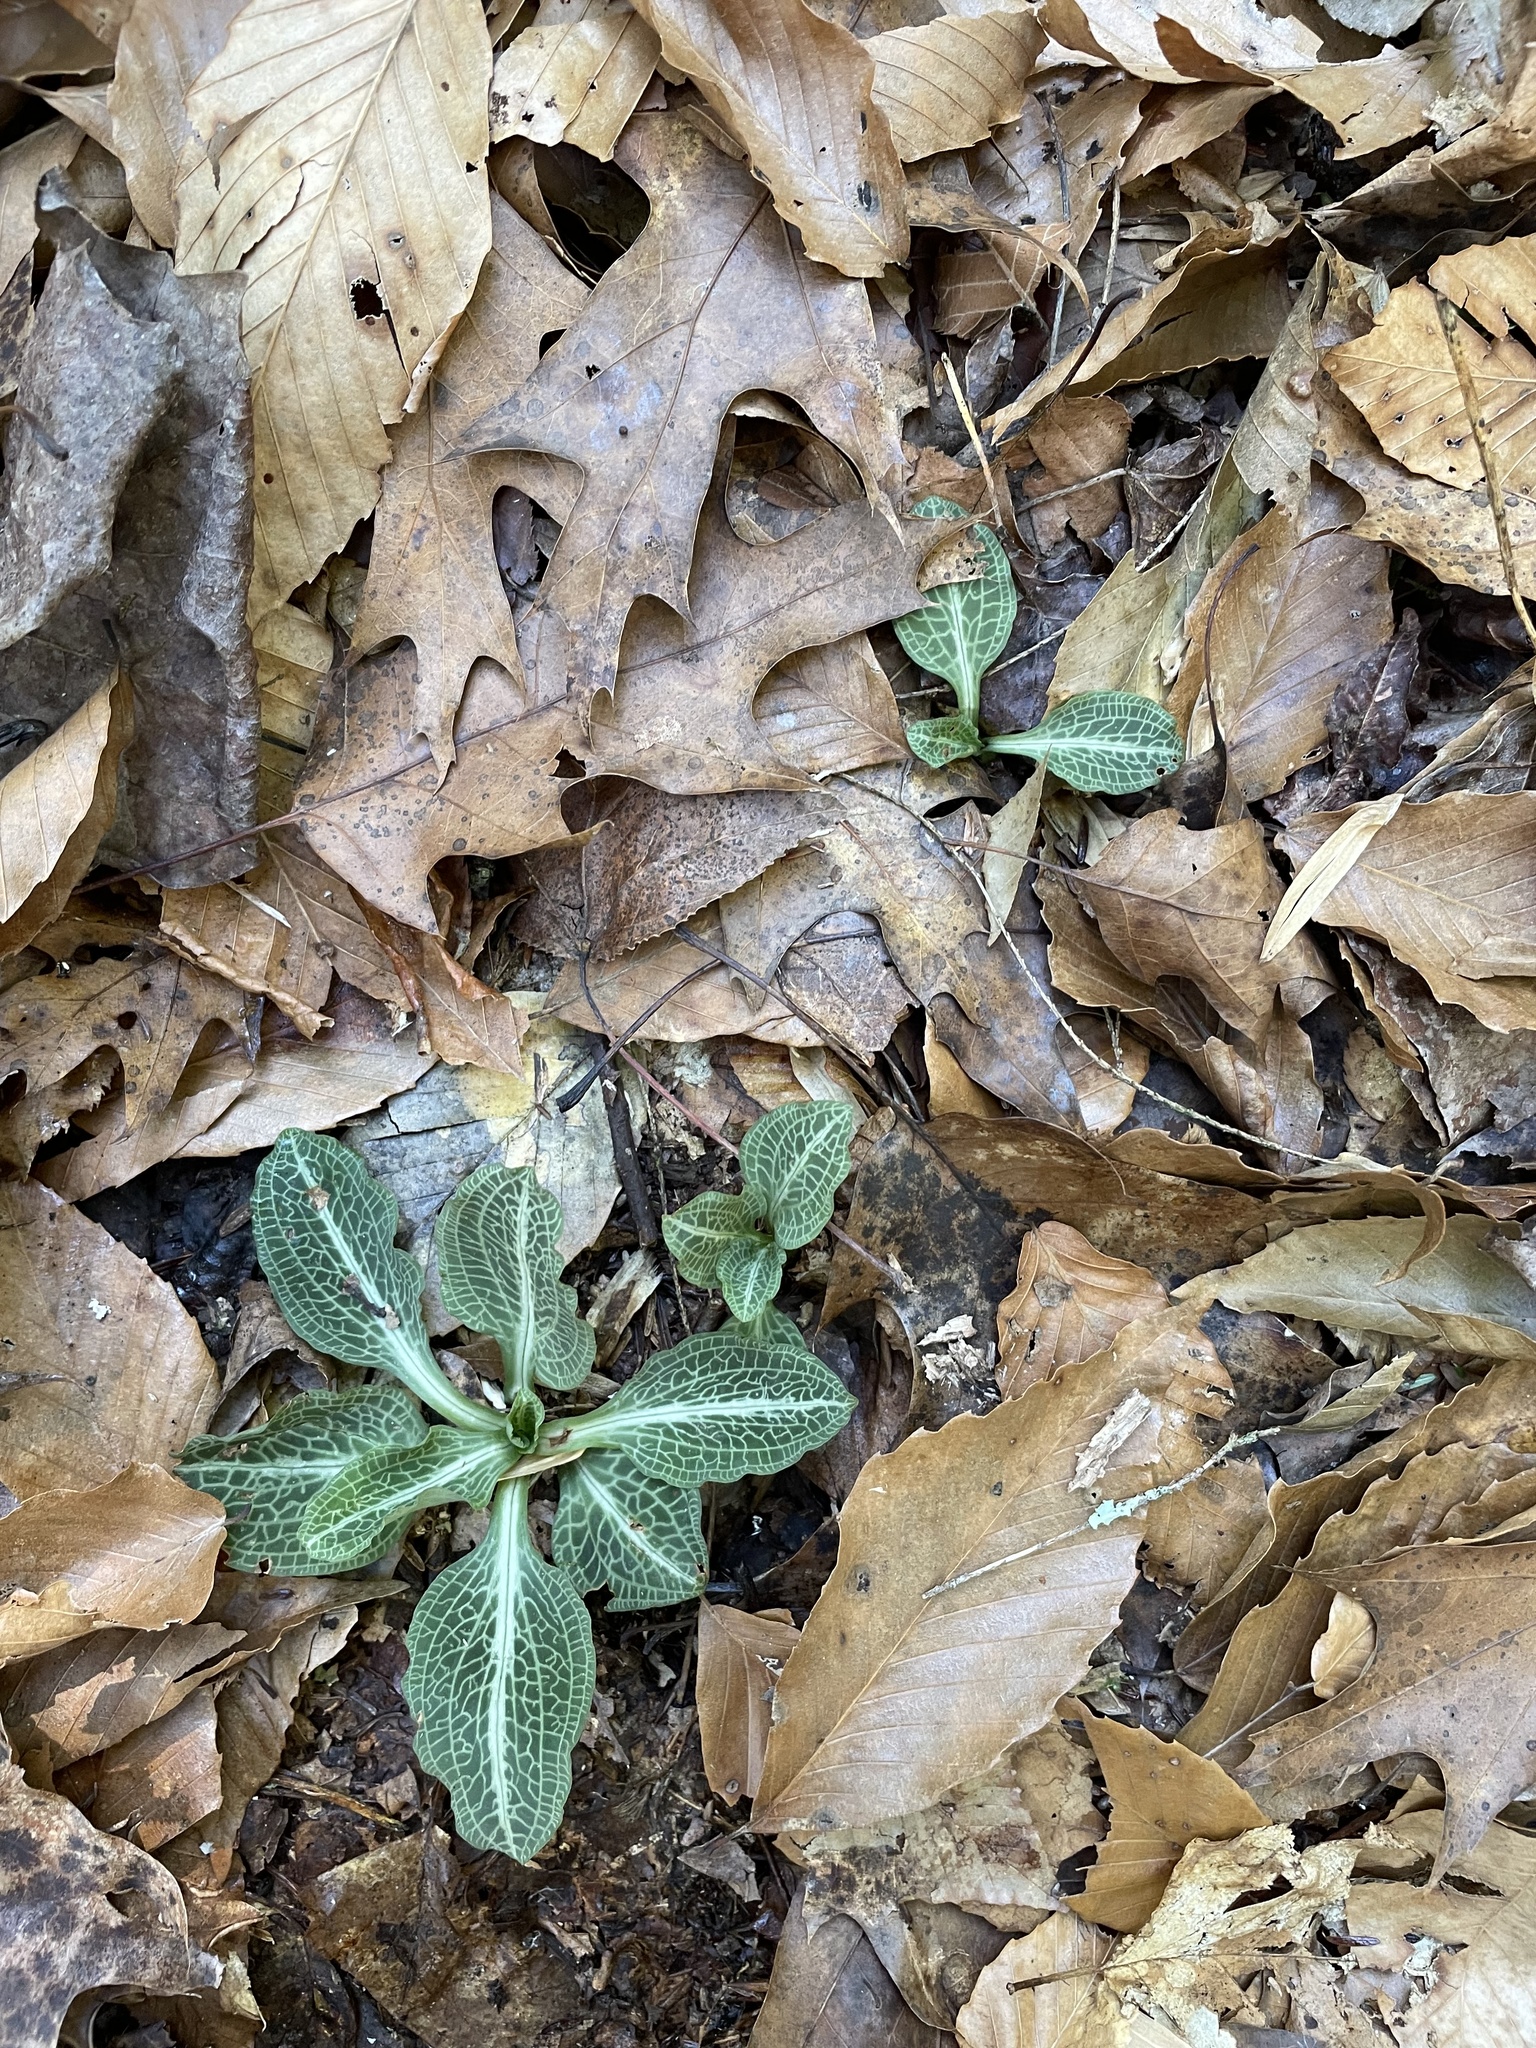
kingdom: Plantae
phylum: Tracheophyta
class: Liliopsida
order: Asparagales
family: Orchidaceae
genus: Goodyera
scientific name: Goodyera pubescens
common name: Downy rattlesnake-plantain
